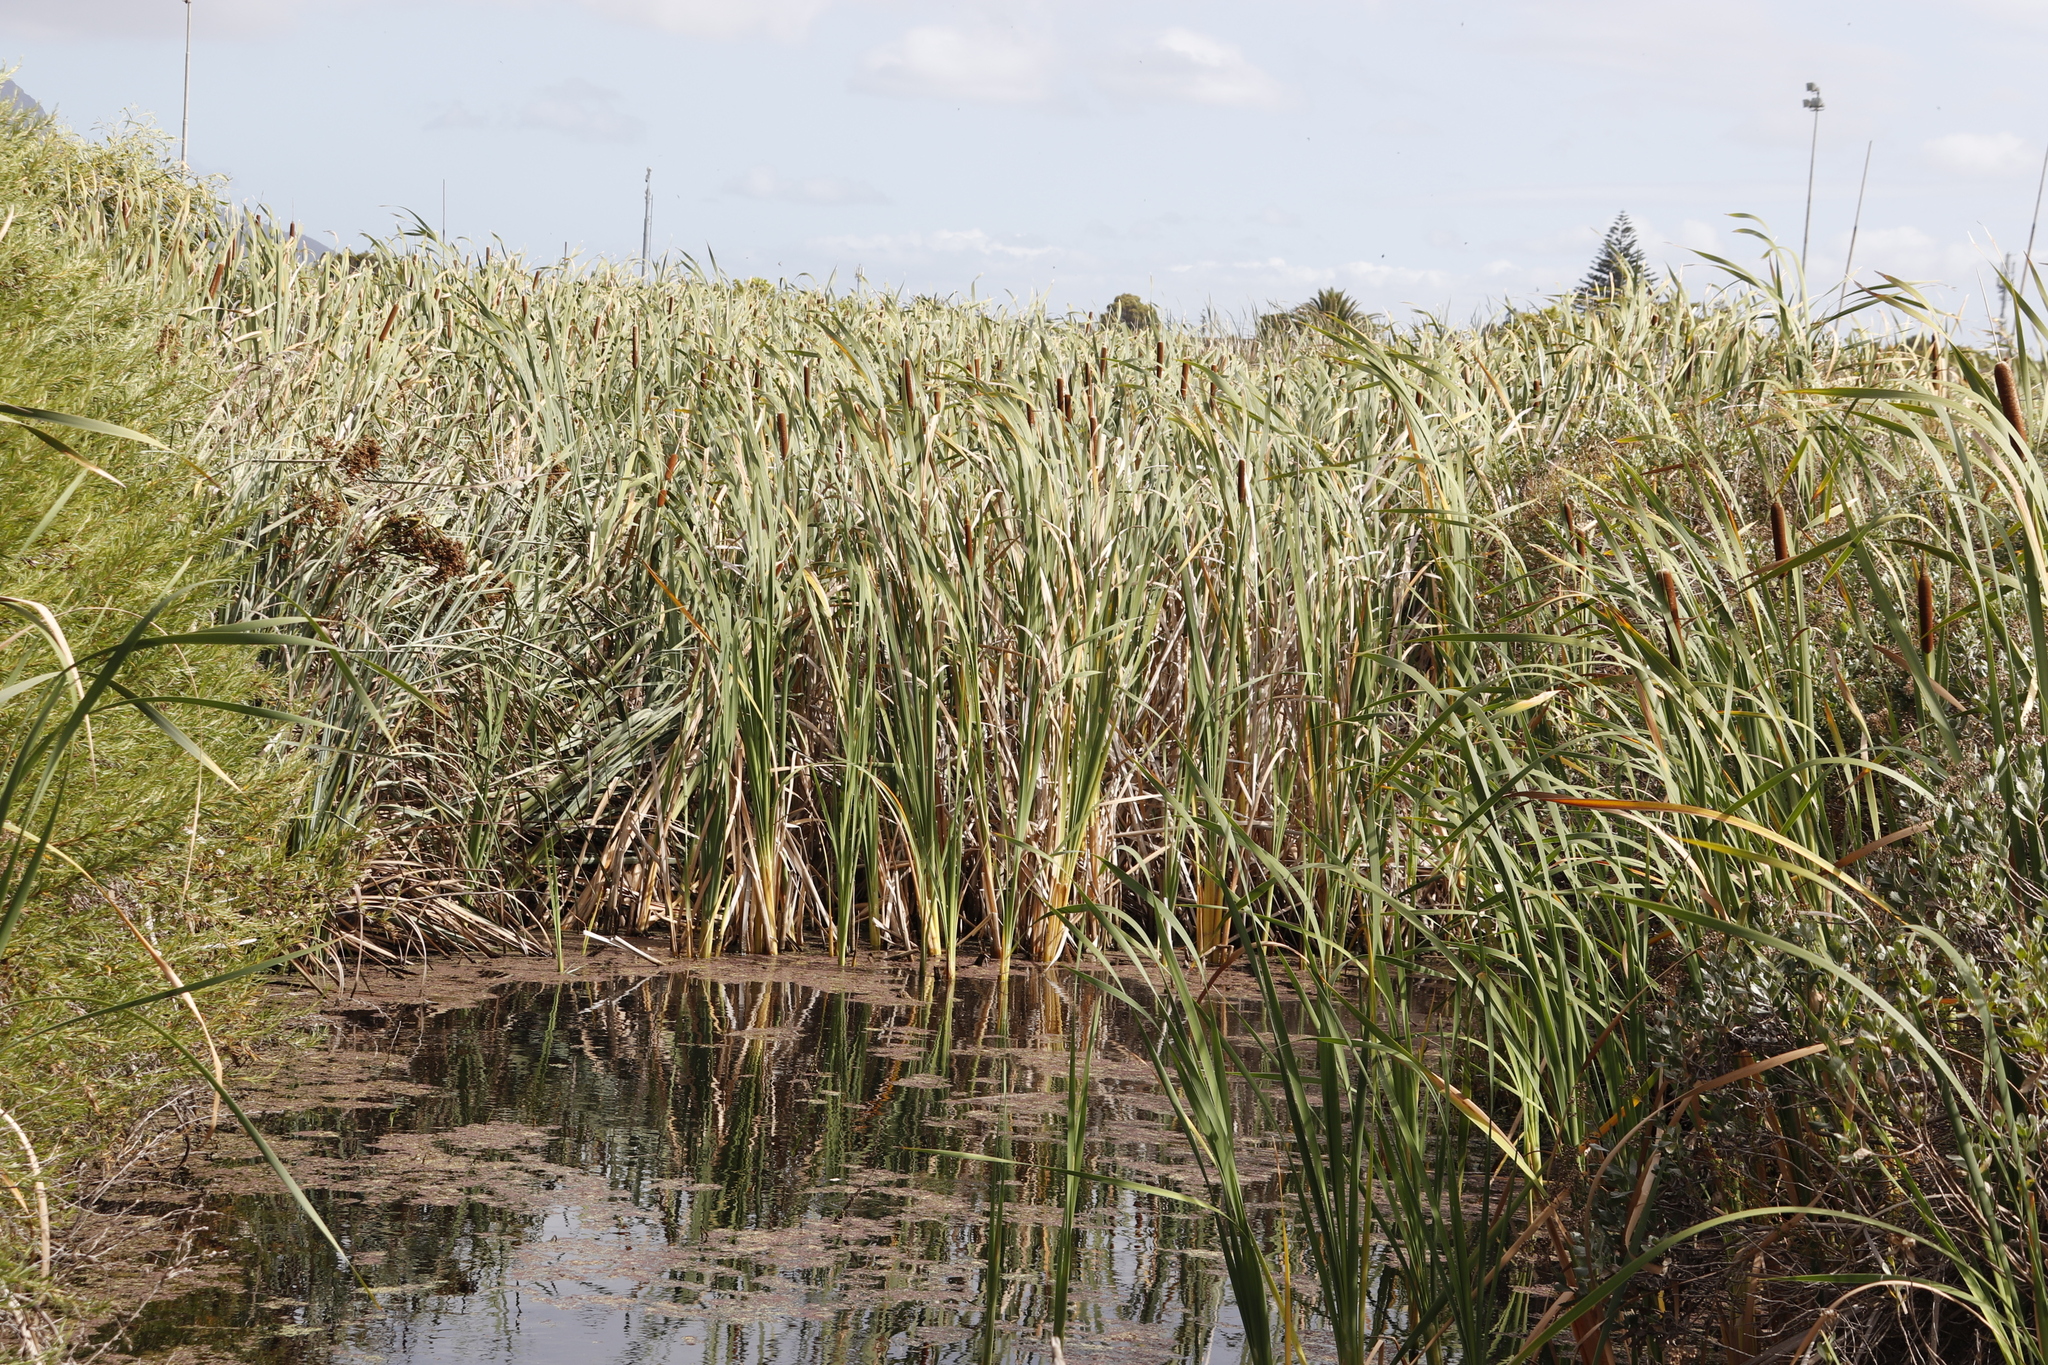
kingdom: Plantae
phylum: Tracheophyta
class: Liliopsida
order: Poales
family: Typhaceae
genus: Typha
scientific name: Typha capensis
